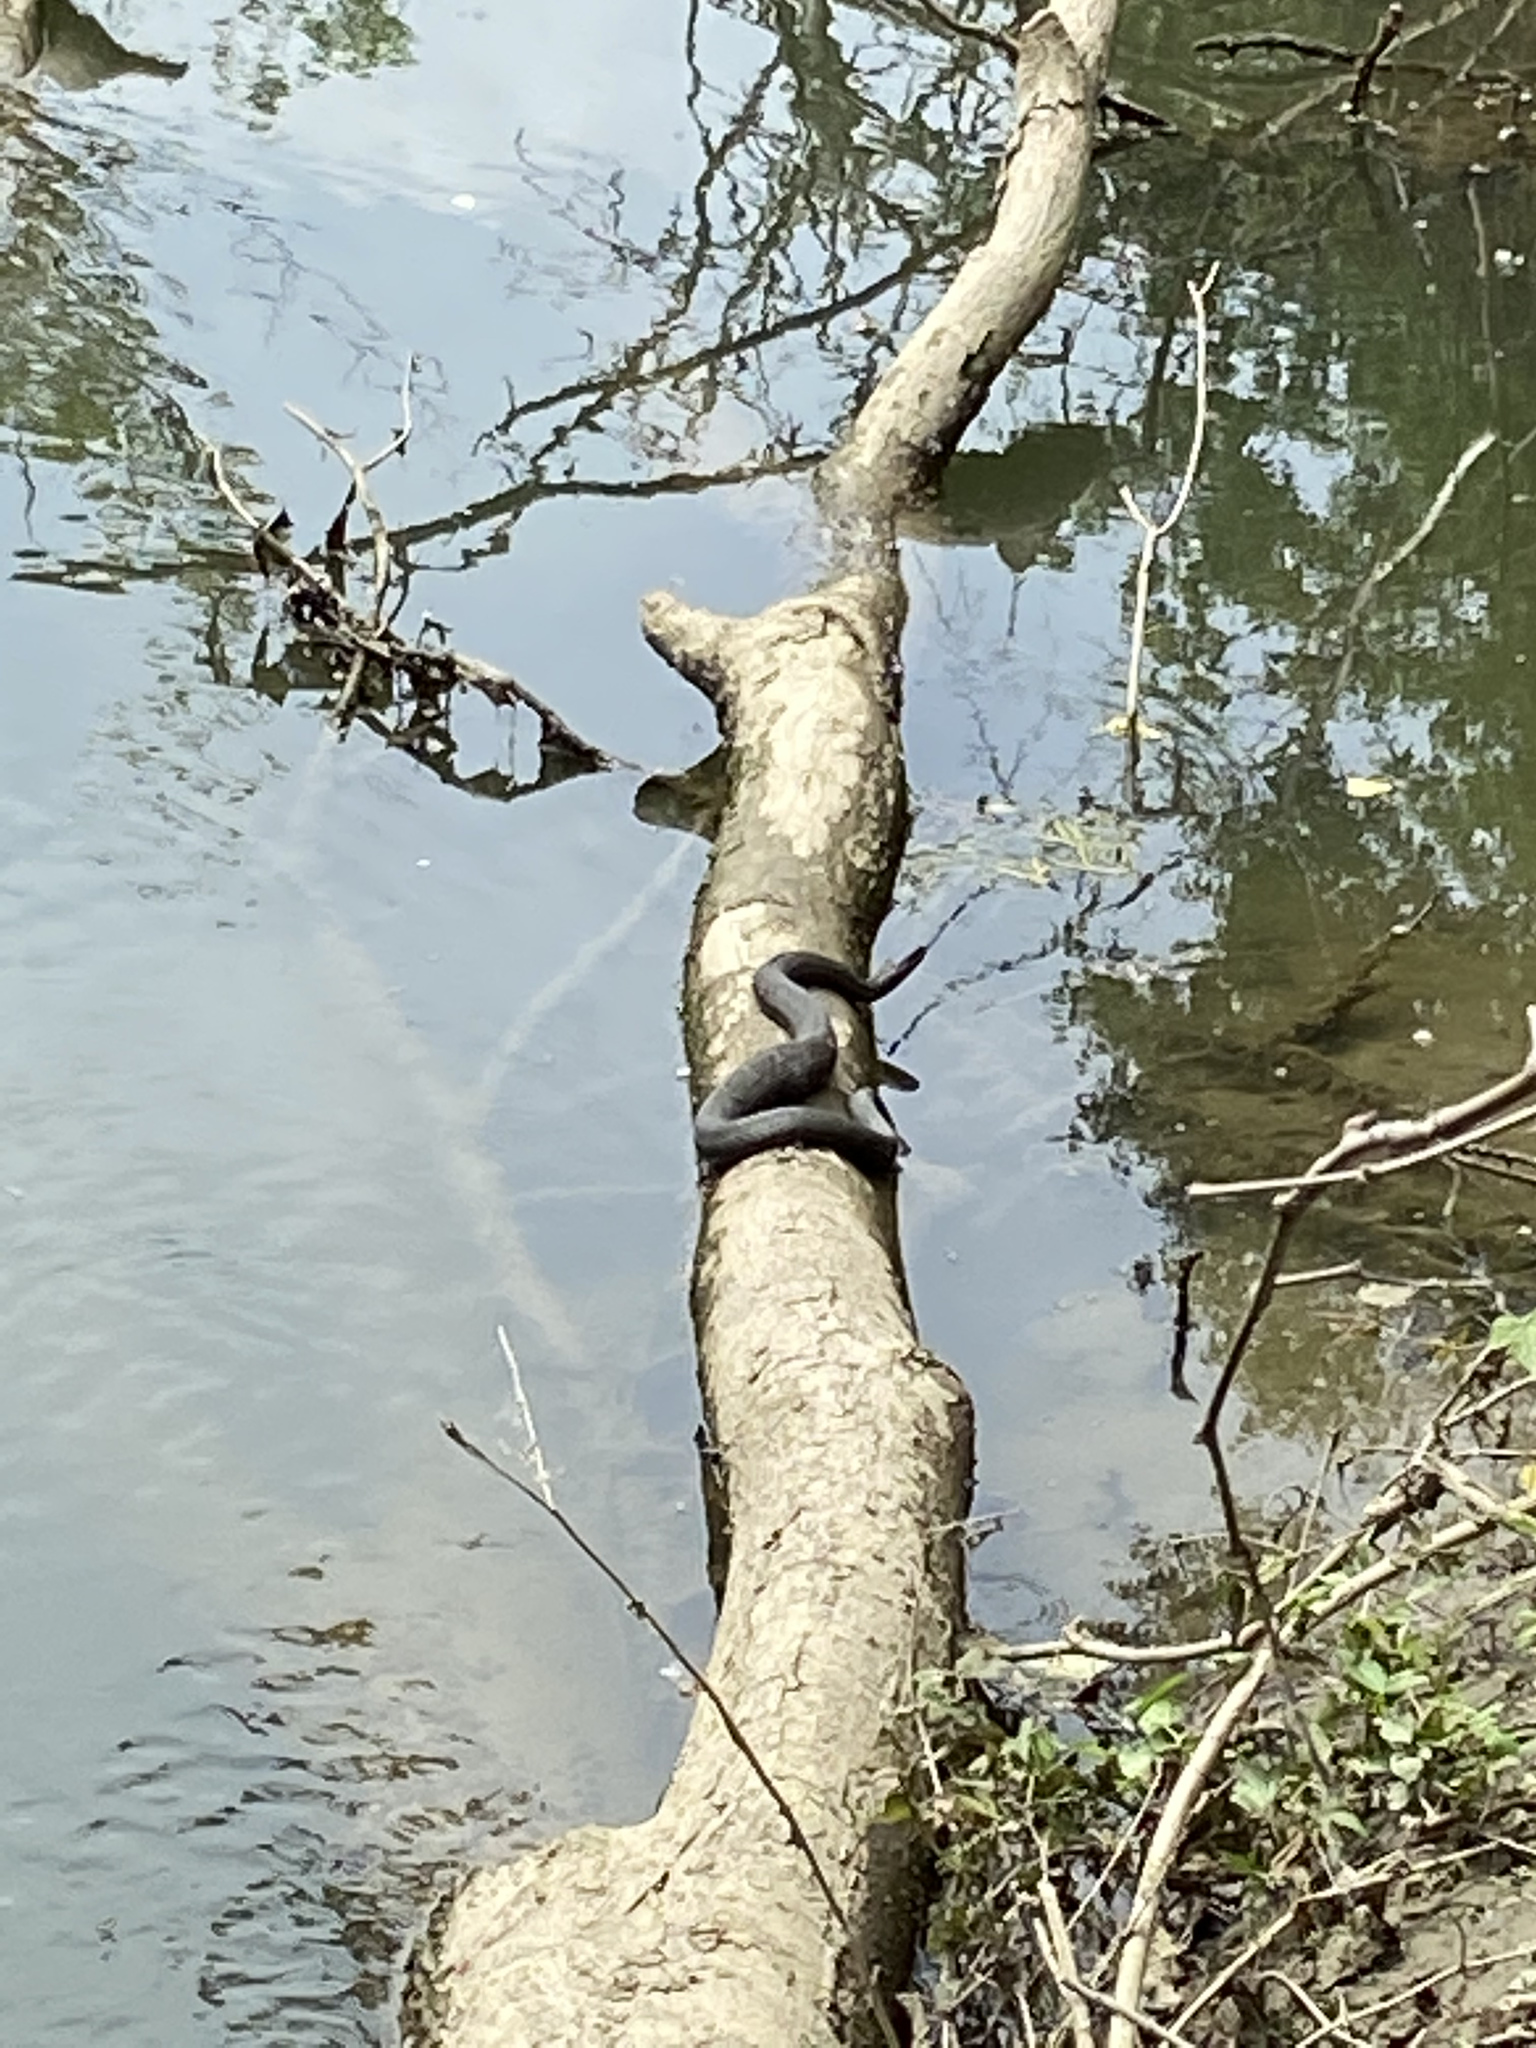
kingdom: Animalia
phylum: Chordata
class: Squamata
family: Colubridae
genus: Nerodia
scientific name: Nerodia sipedon
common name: Northern water snake
